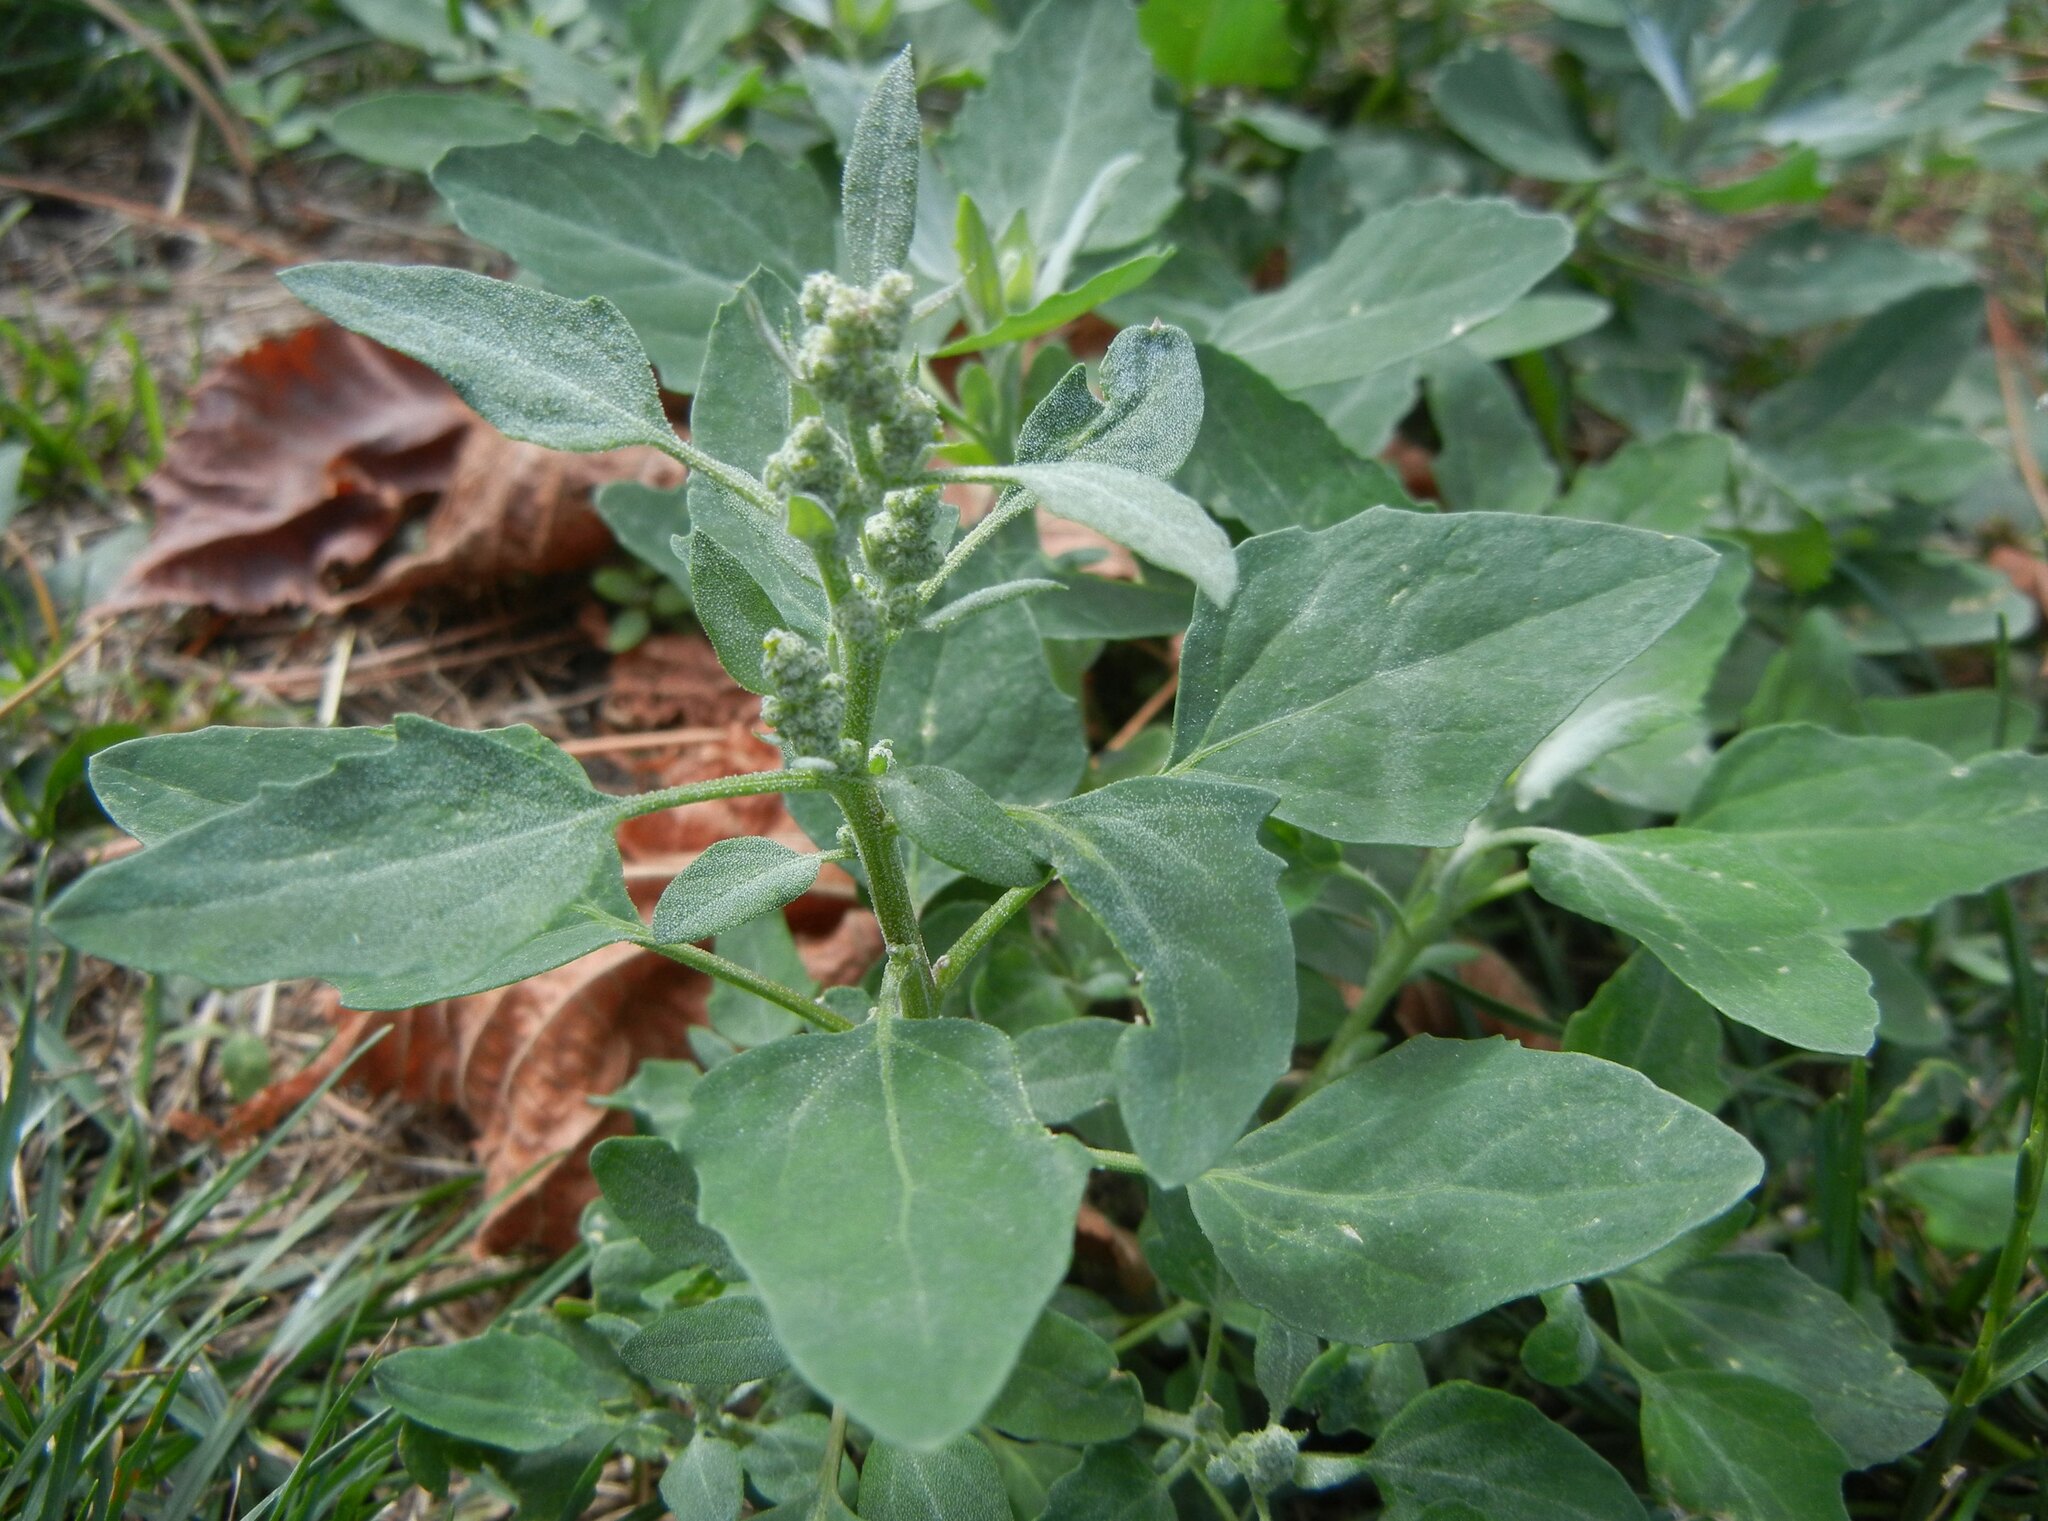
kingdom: Plantae
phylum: Tracheophyta
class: Magnoliopsida
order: Caryophyllales
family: Amaranthaceae
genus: Atriplex
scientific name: Atriplex patula
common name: Common orache
